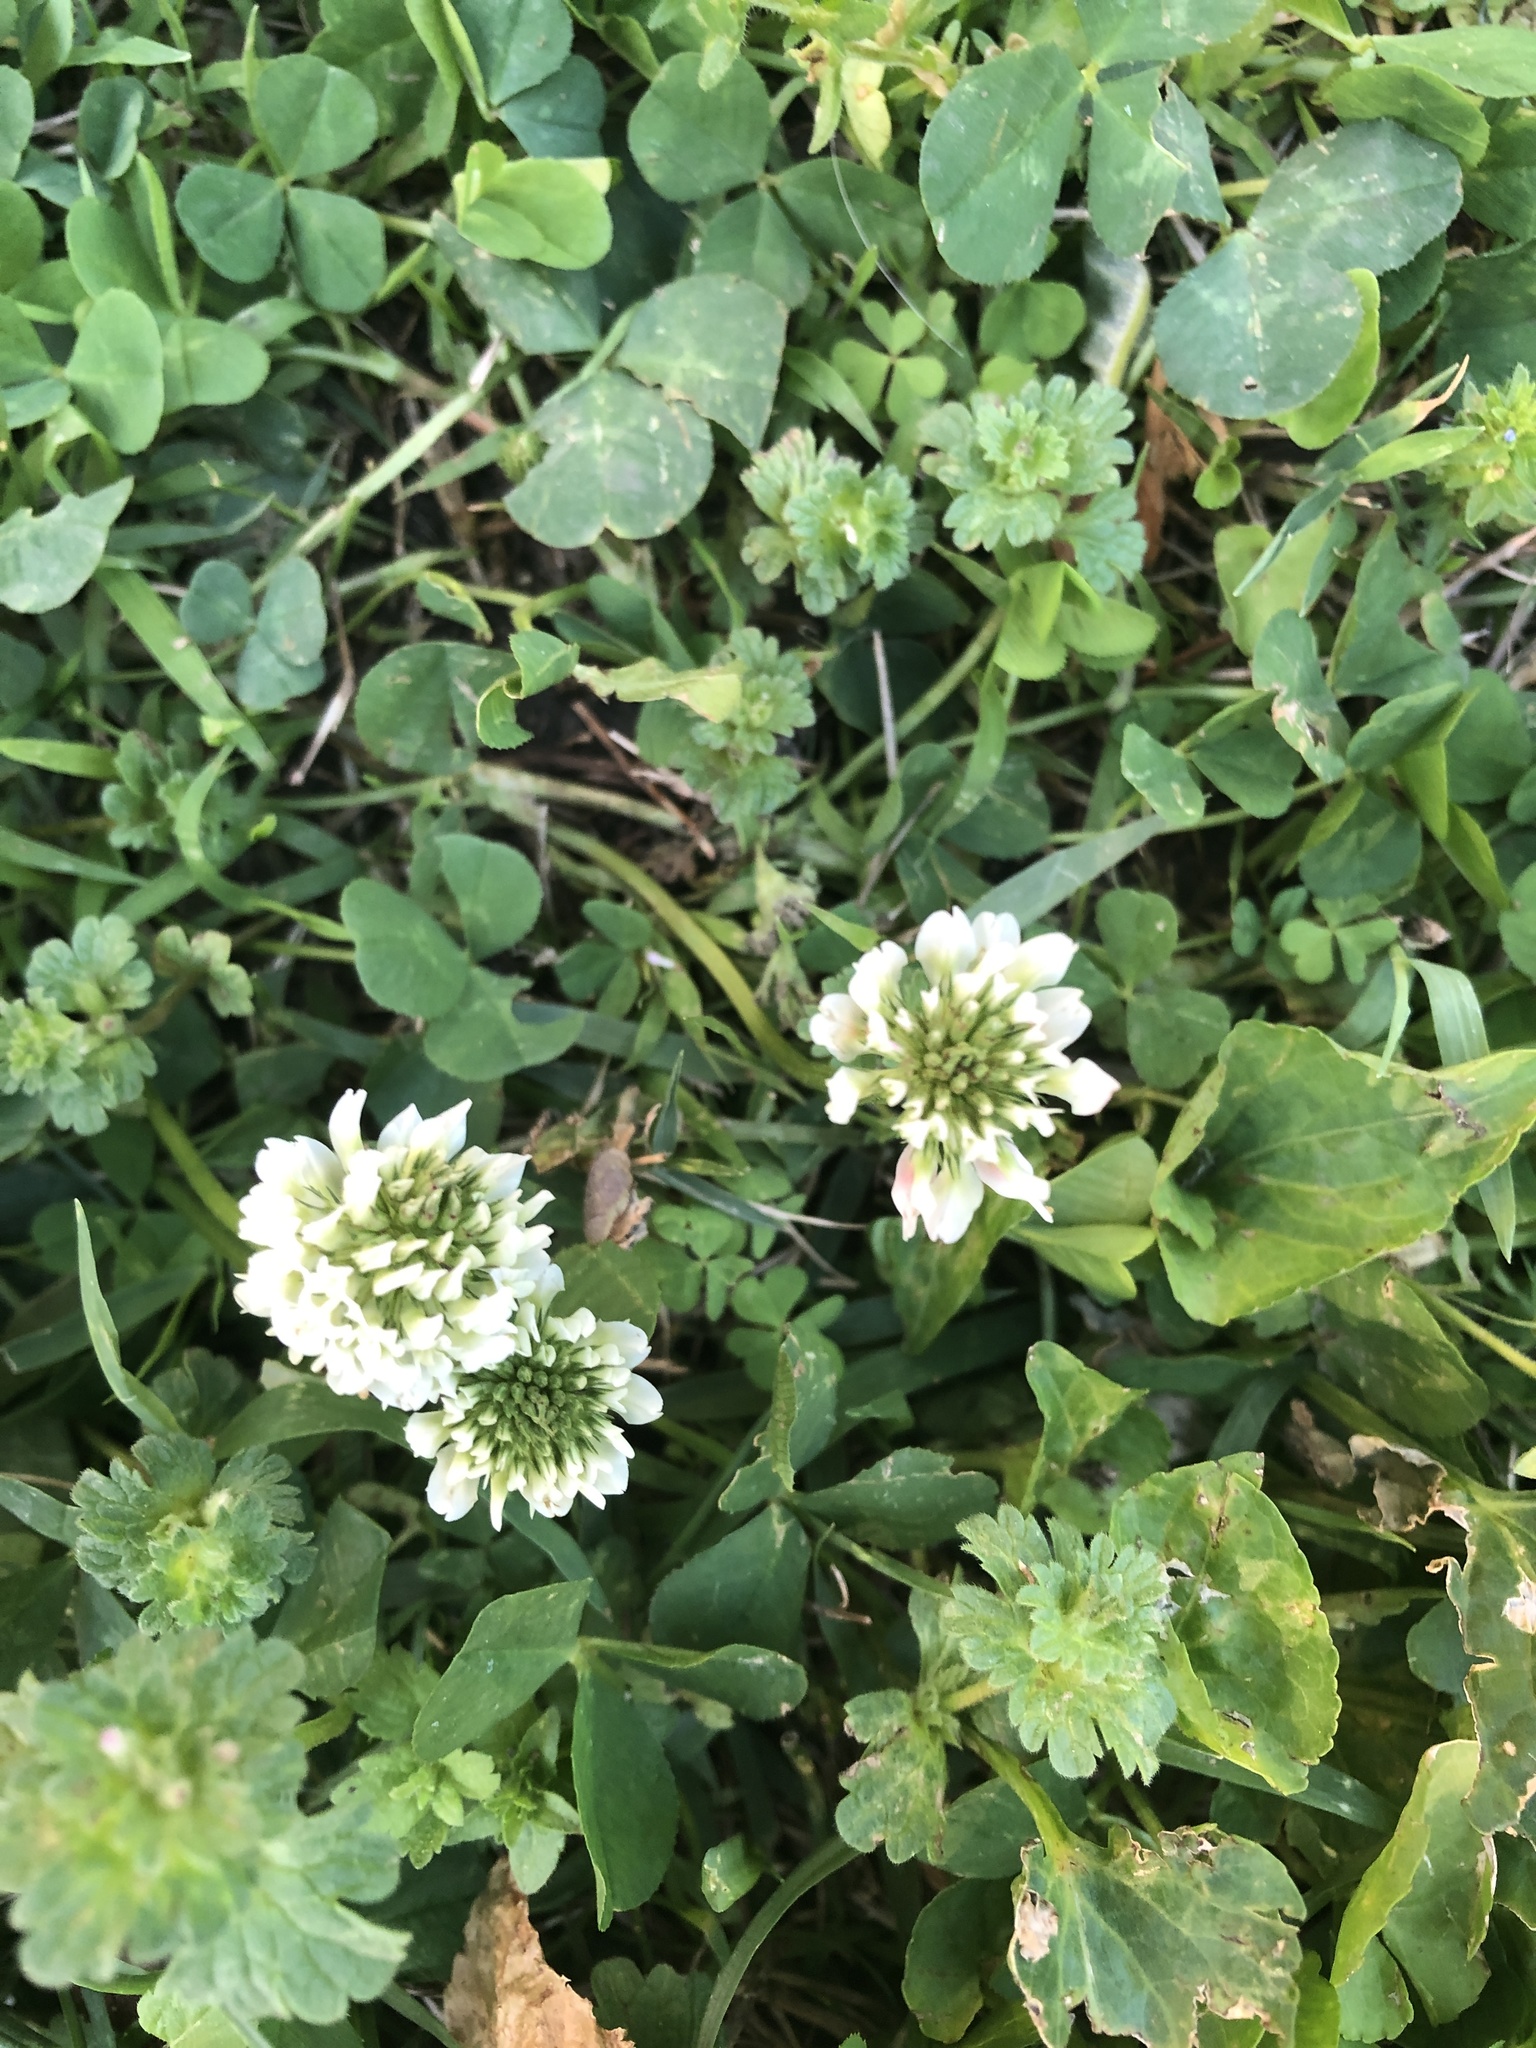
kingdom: Plantae
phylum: Tracheophyta
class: Magnoliopsida
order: Fabales
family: Fabaceae
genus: Trifolium
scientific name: Trifolium repens
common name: White clover
